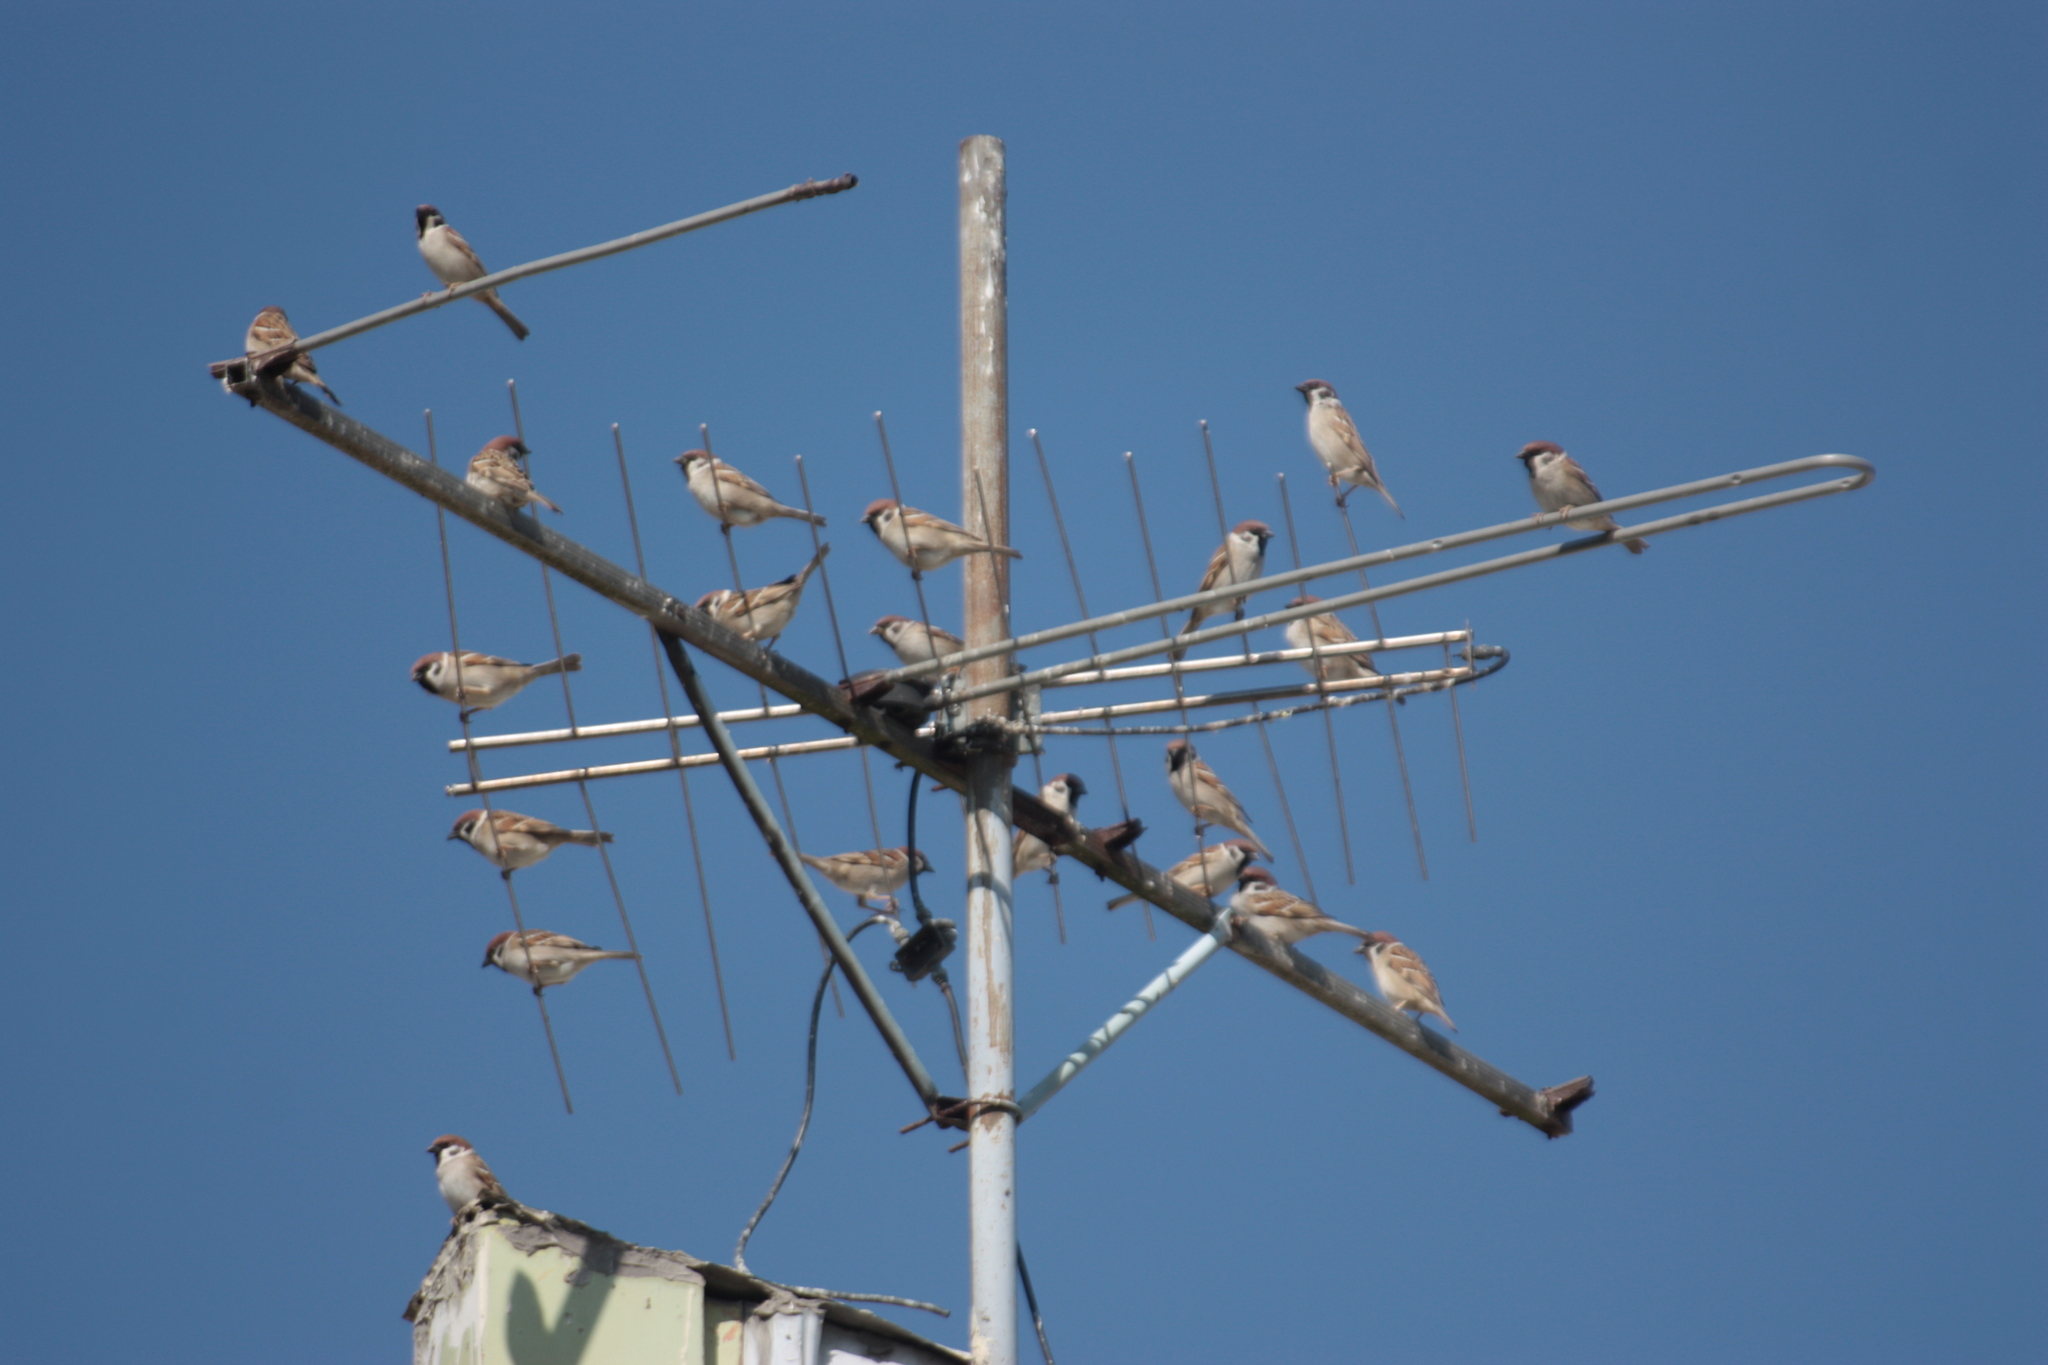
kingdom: Animalia
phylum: Chordata
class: Aves
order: Passeriformes
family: Passeridae
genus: Passer
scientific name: Passer montanus
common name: Eurasian tree sparrow
